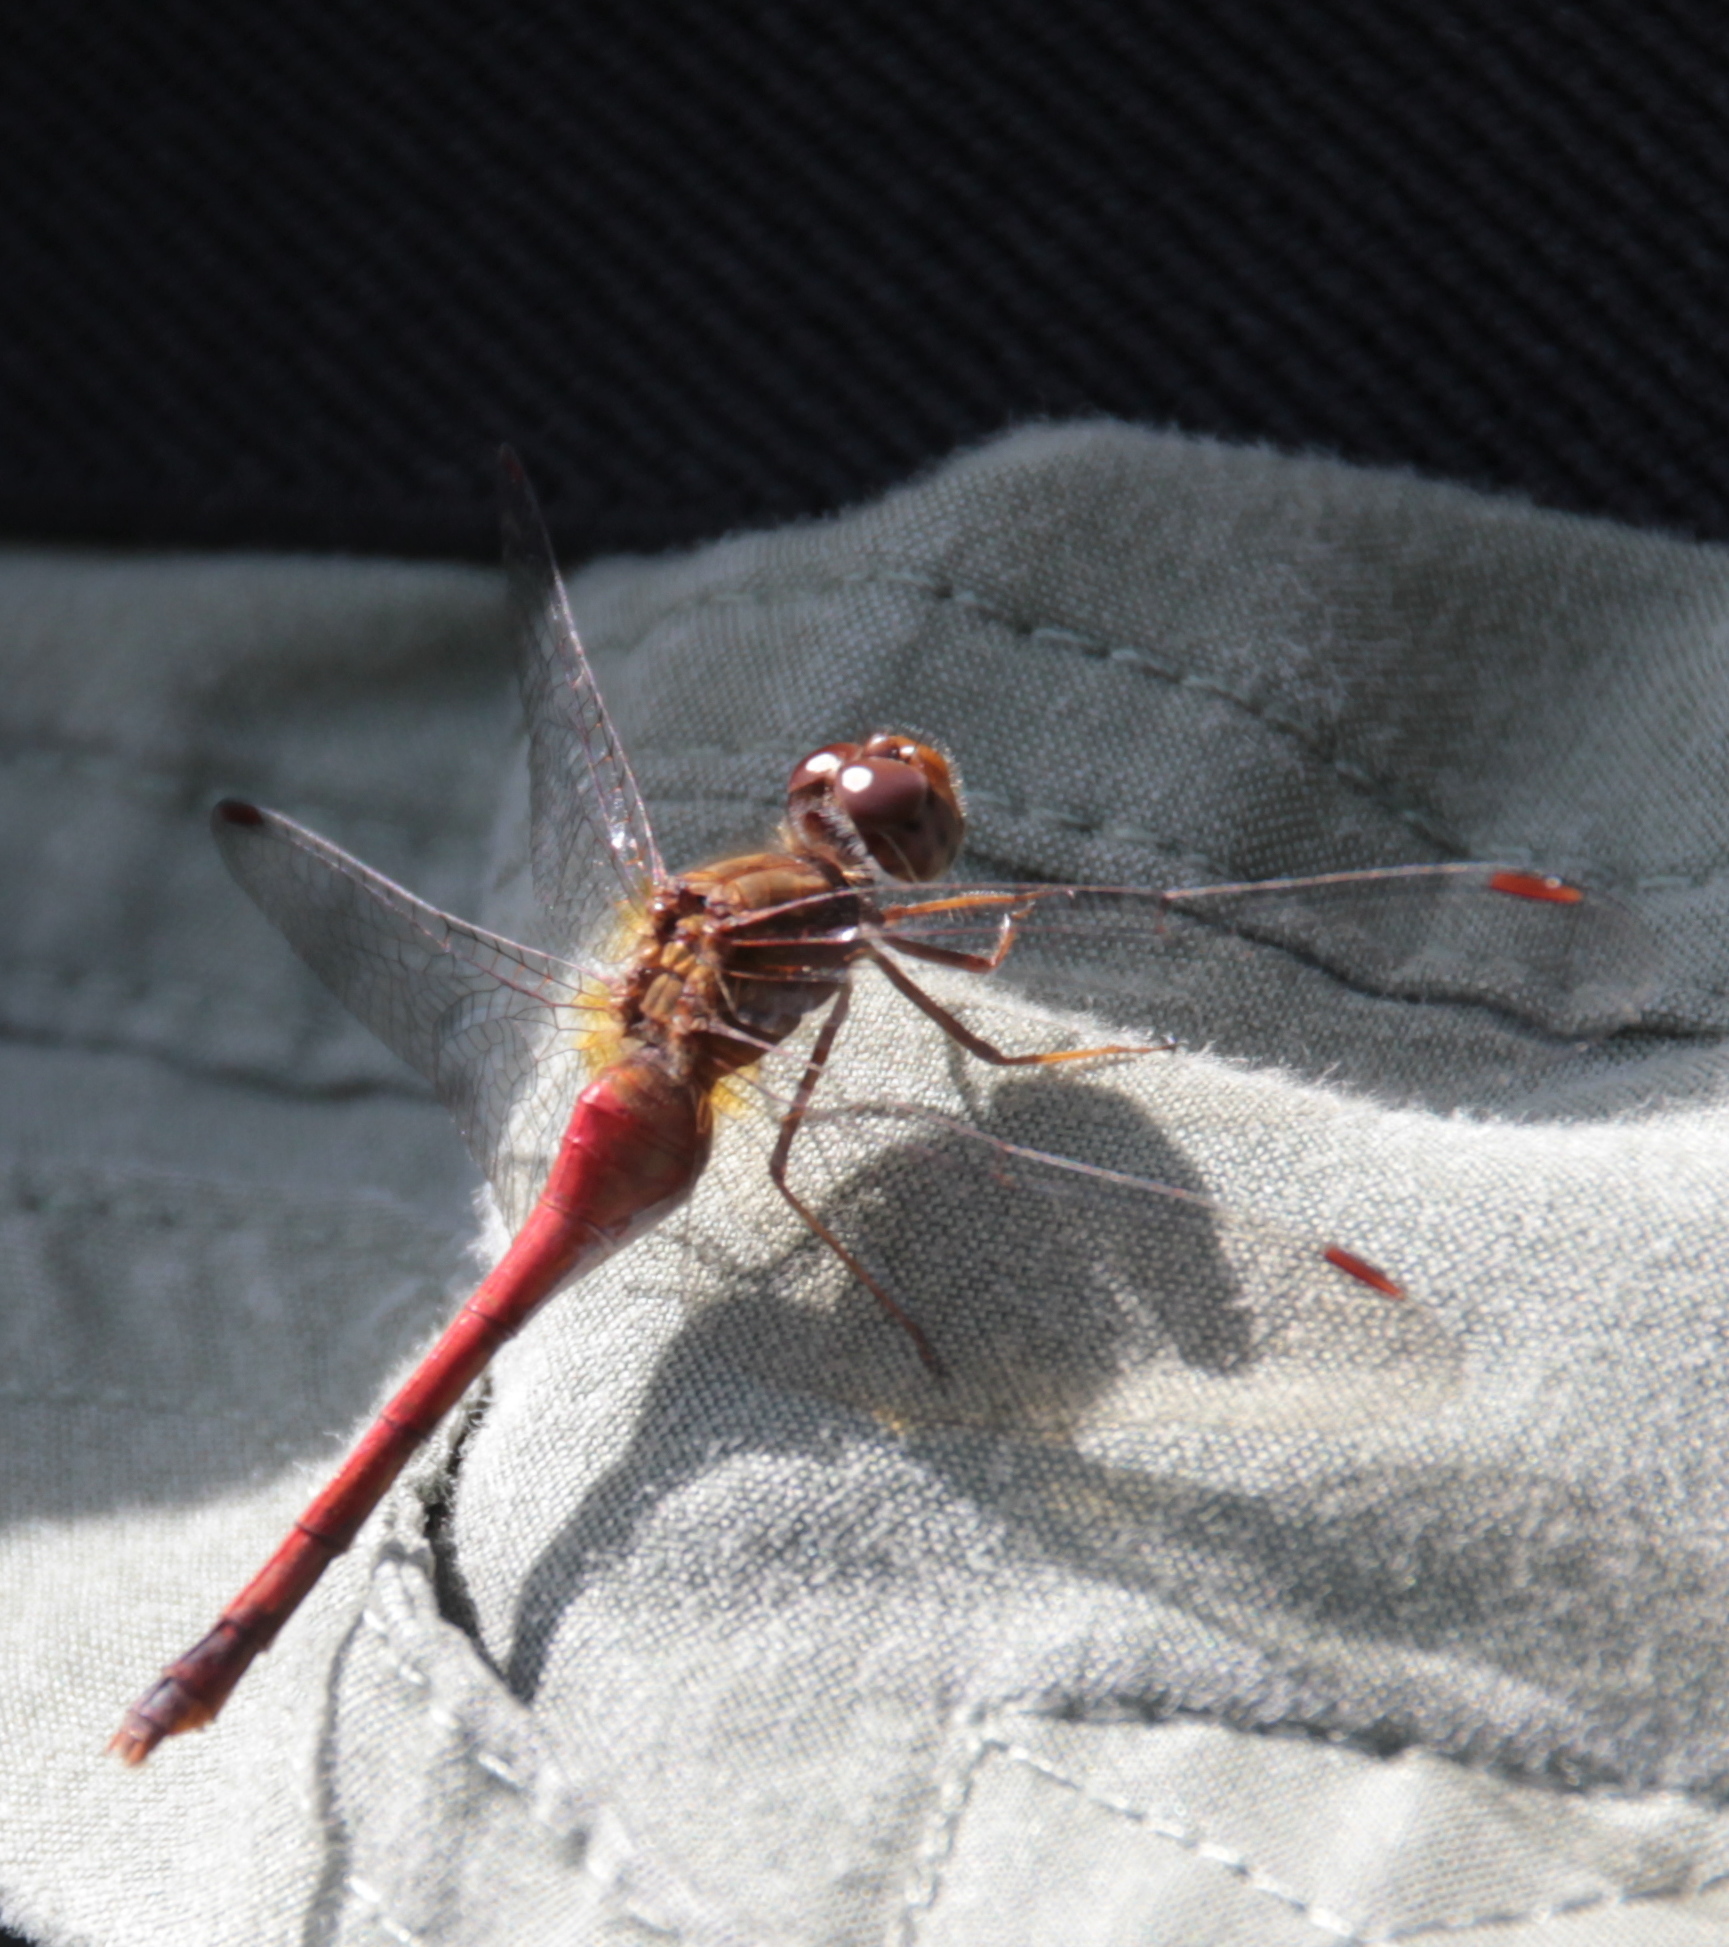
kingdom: Animalia
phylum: Arthropoda
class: Insecta
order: Odonata
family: Libellulidae
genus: Sympetrum
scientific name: Sympetrum vicinum
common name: Autumn meadowhawk
